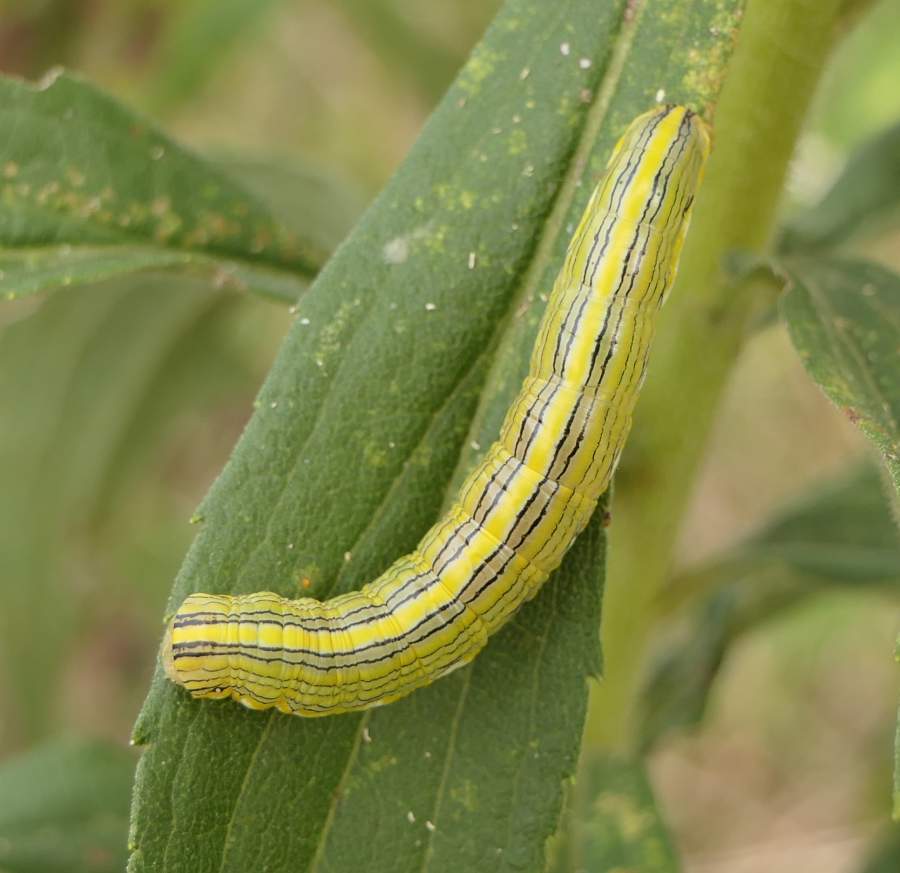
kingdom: Animalia
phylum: Arthropoda
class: Insecta
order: Lepidoptera
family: Noctuidae
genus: Cucullia
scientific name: Cucullia asteroides
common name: Asteroid moth
